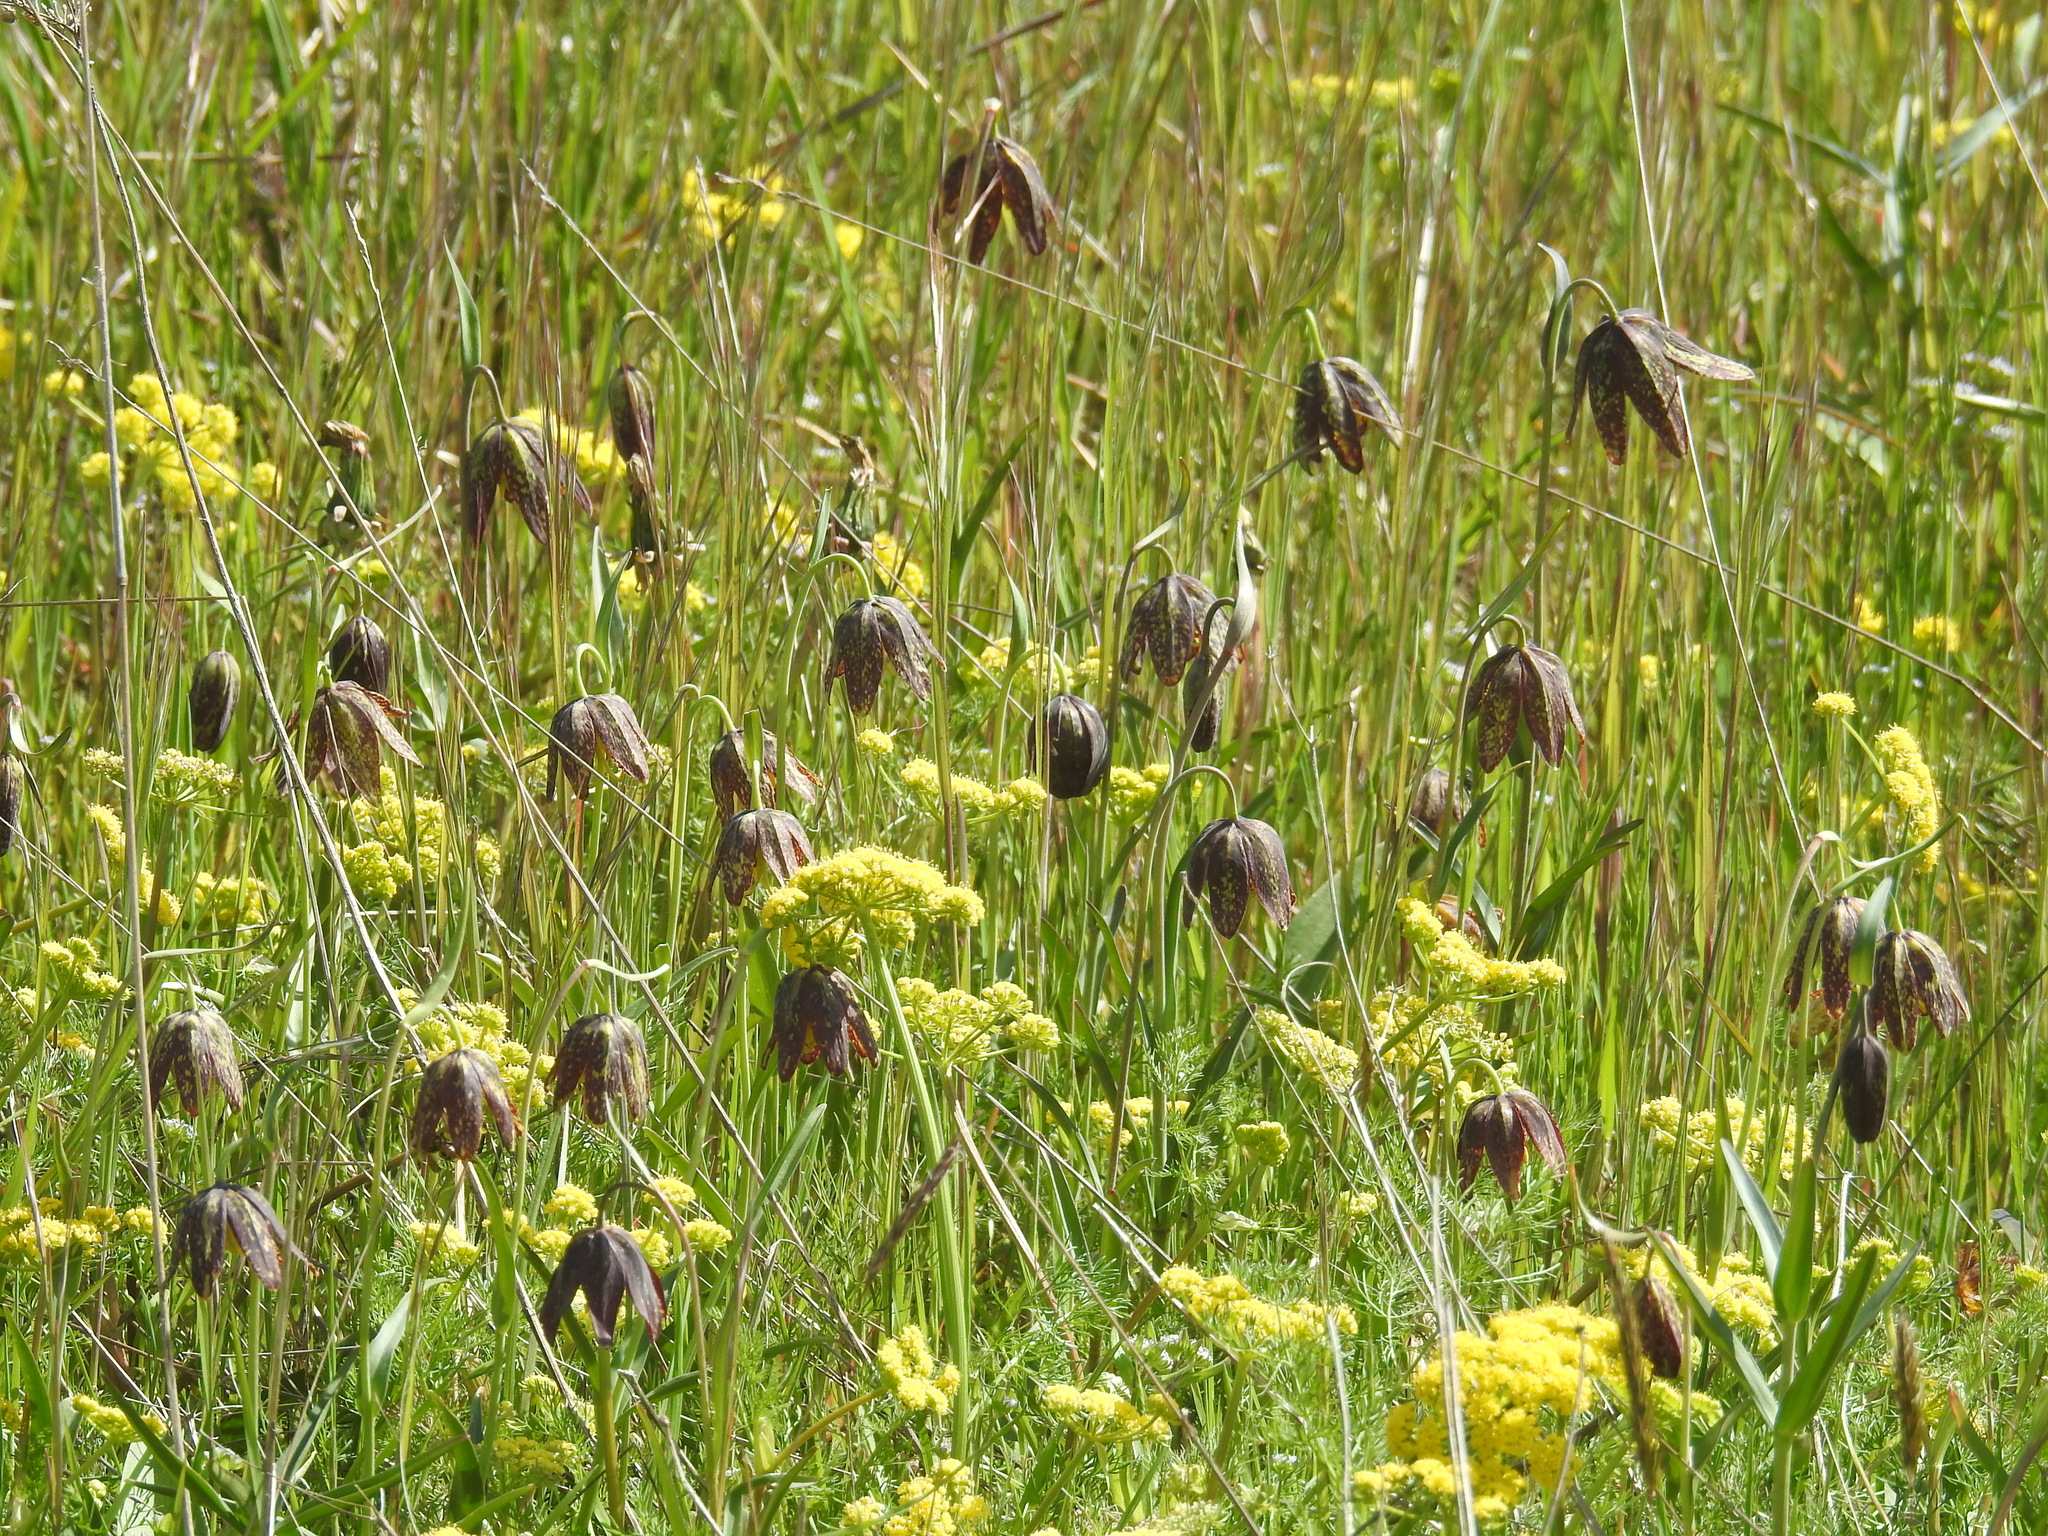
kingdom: Plantae
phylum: Tracheophyta
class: Liliopsida
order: Liliales
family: Liliaceae
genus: Fritillaria
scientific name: Fritillaria affinis
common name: Ojai fritillary
